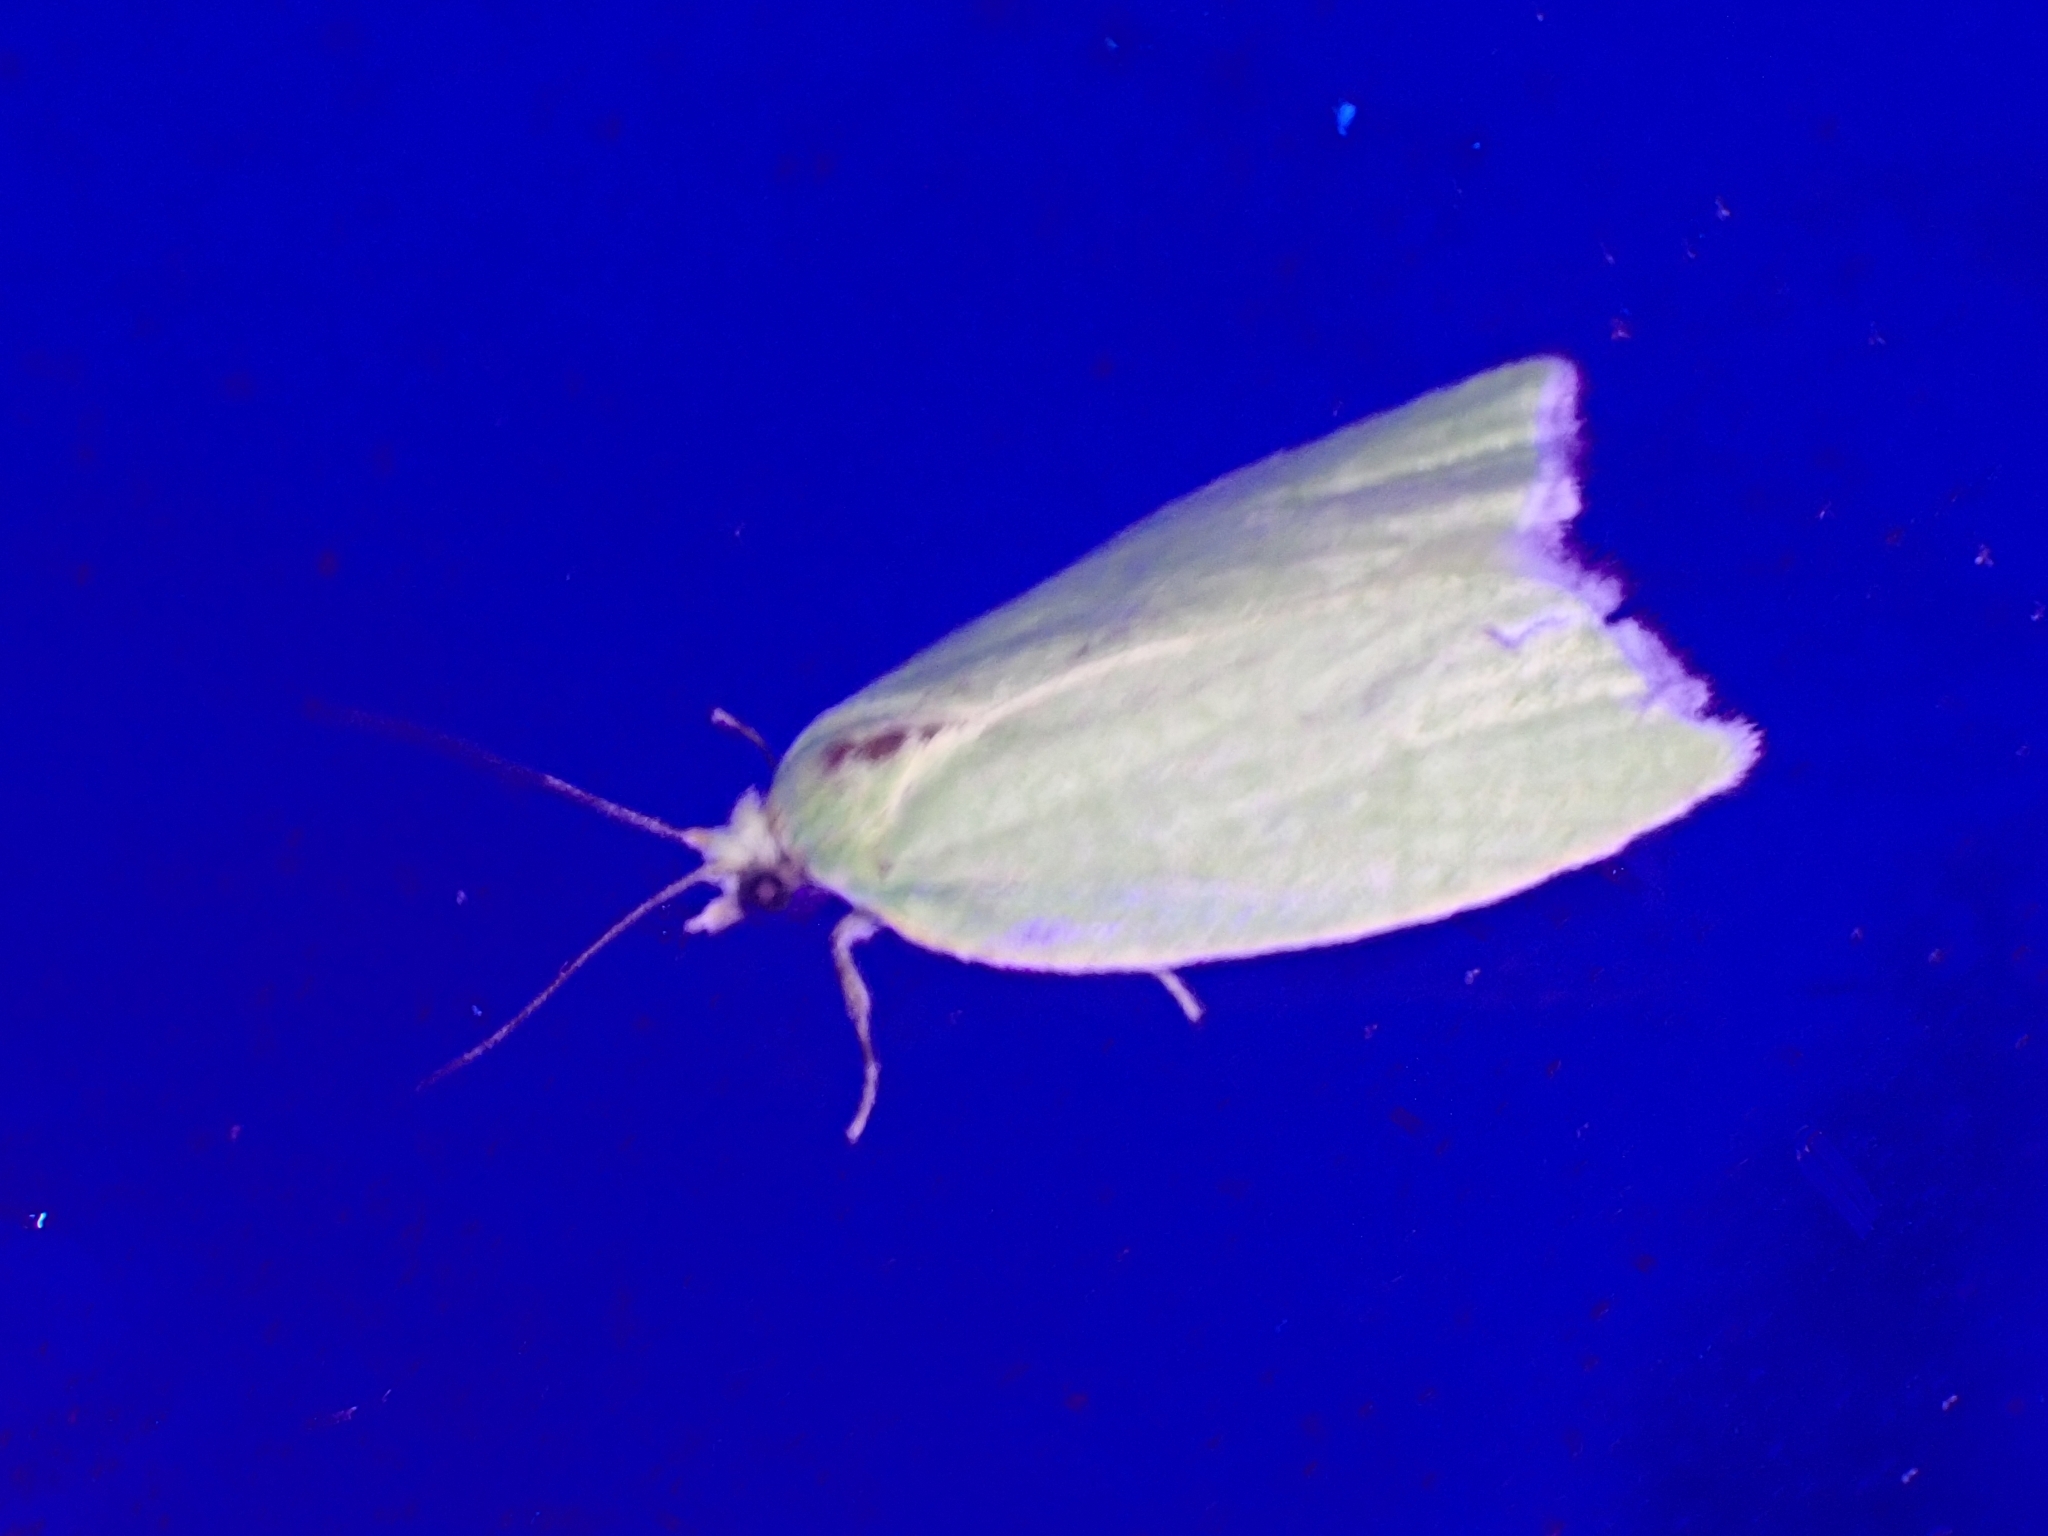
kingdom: Animalia
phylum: Arthropoda
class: Insecta
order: Lepidoptera
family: Tortricidae
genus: Tortrix
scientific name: Tortrix viridana
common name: Green oak tortrix
